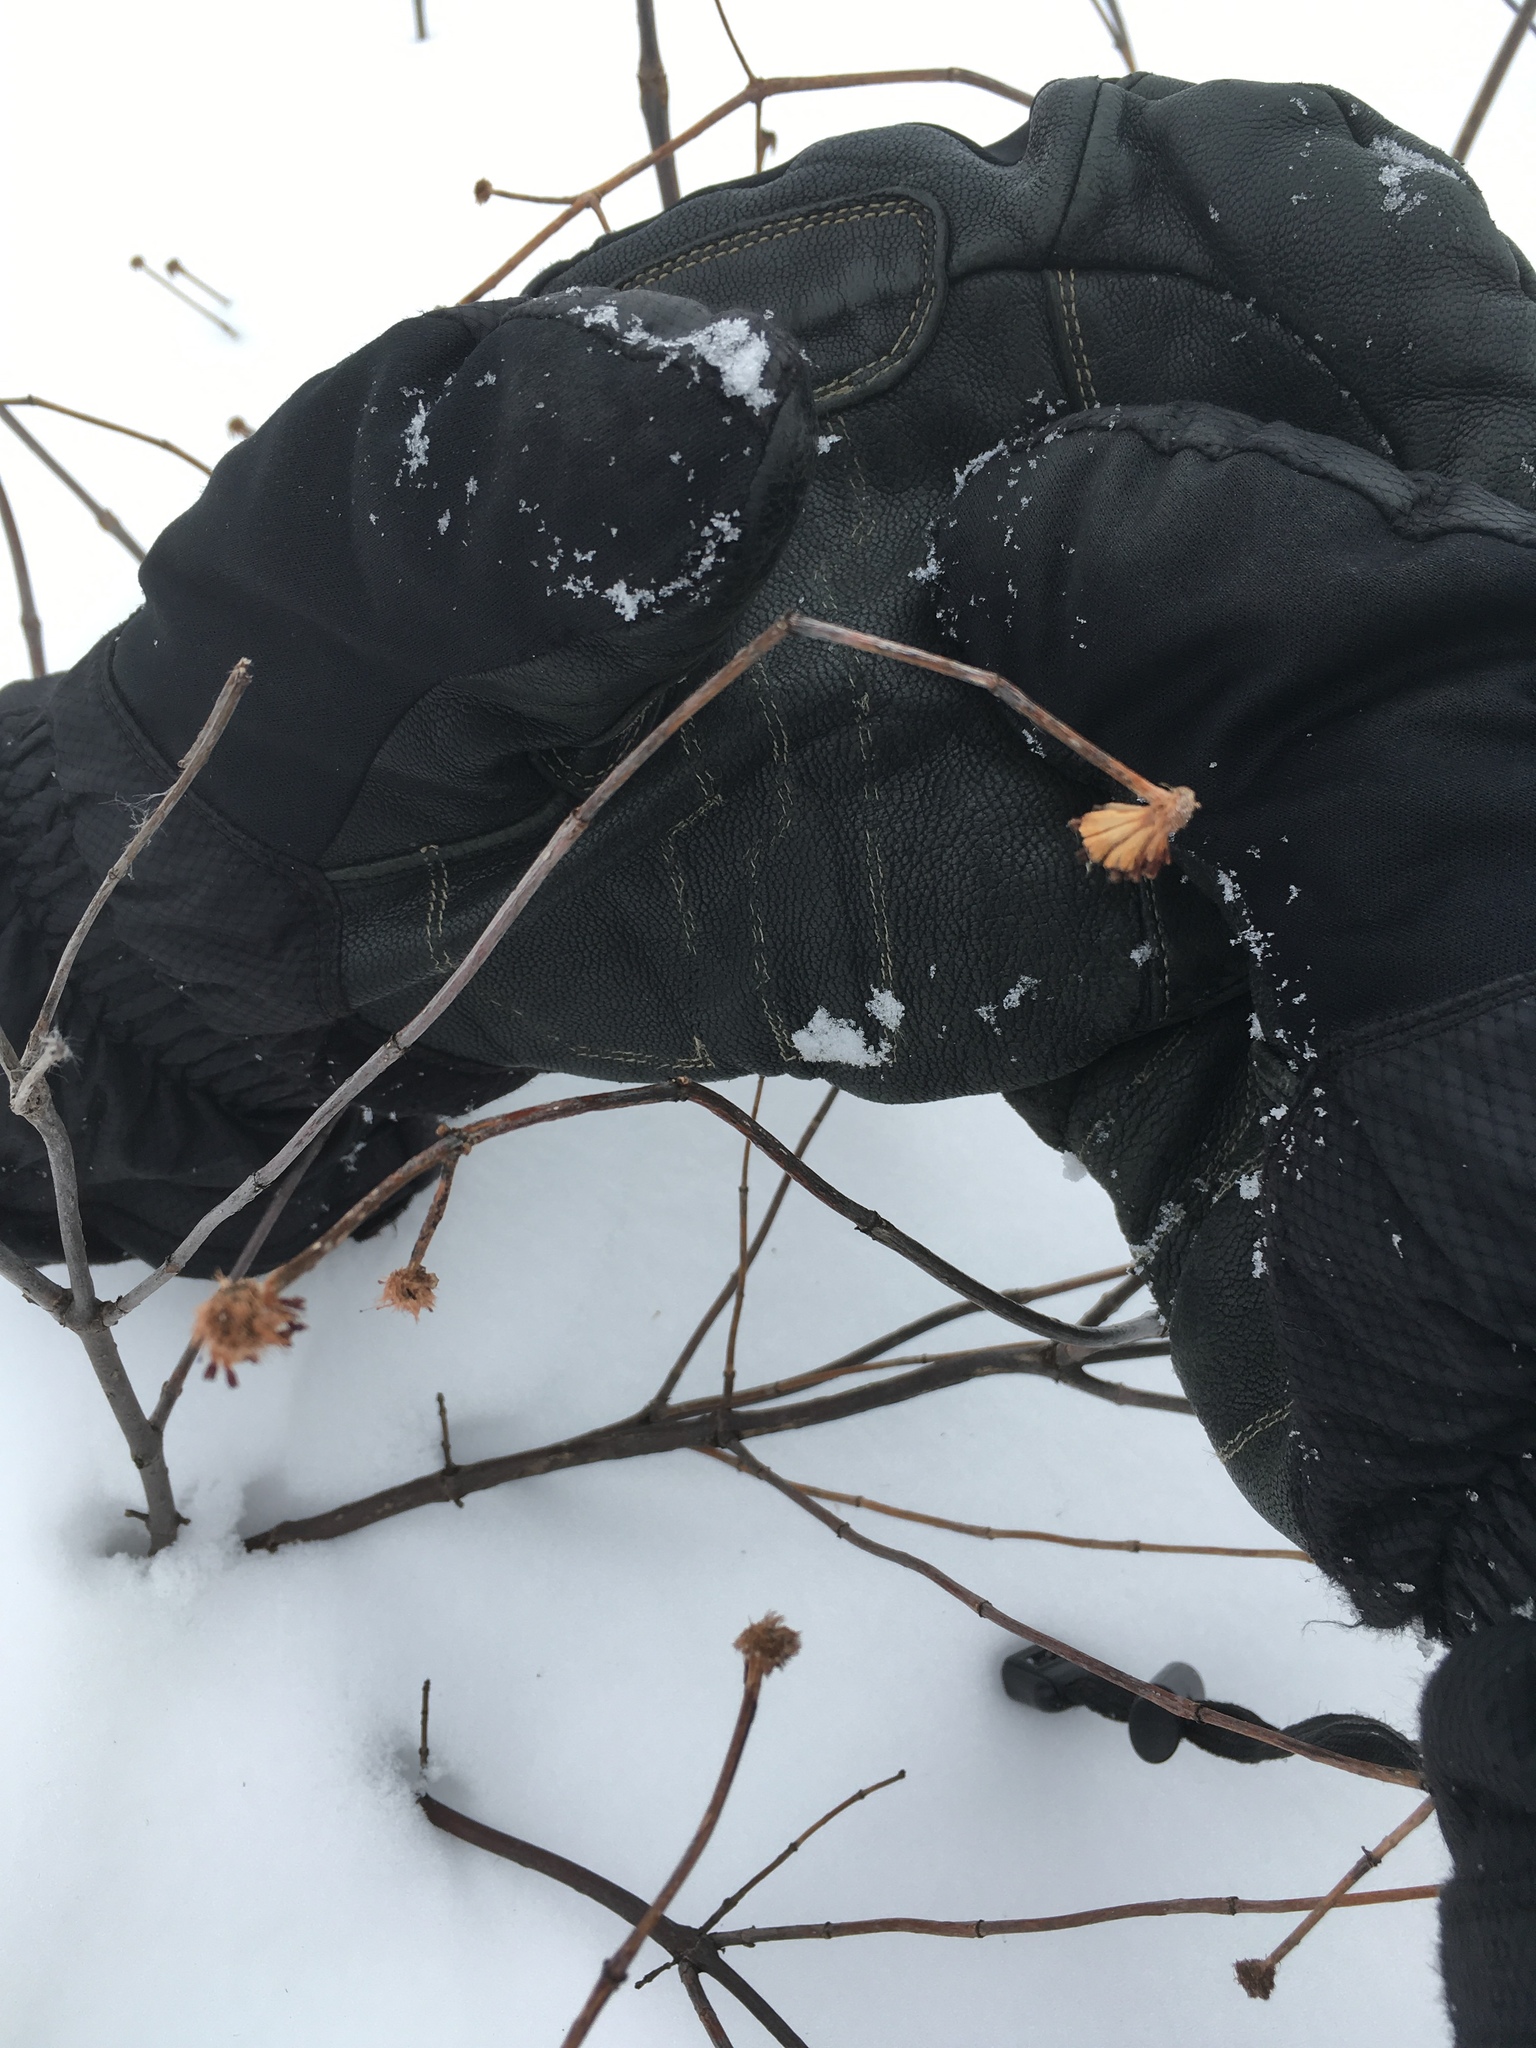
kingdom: Plantae
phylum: Tracheophyta
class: Magnoliopsida
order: Gentianales
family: Rubiaceae
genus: Cephalanthus
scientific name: Cephalanthus occidentalis
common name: Button-willow
